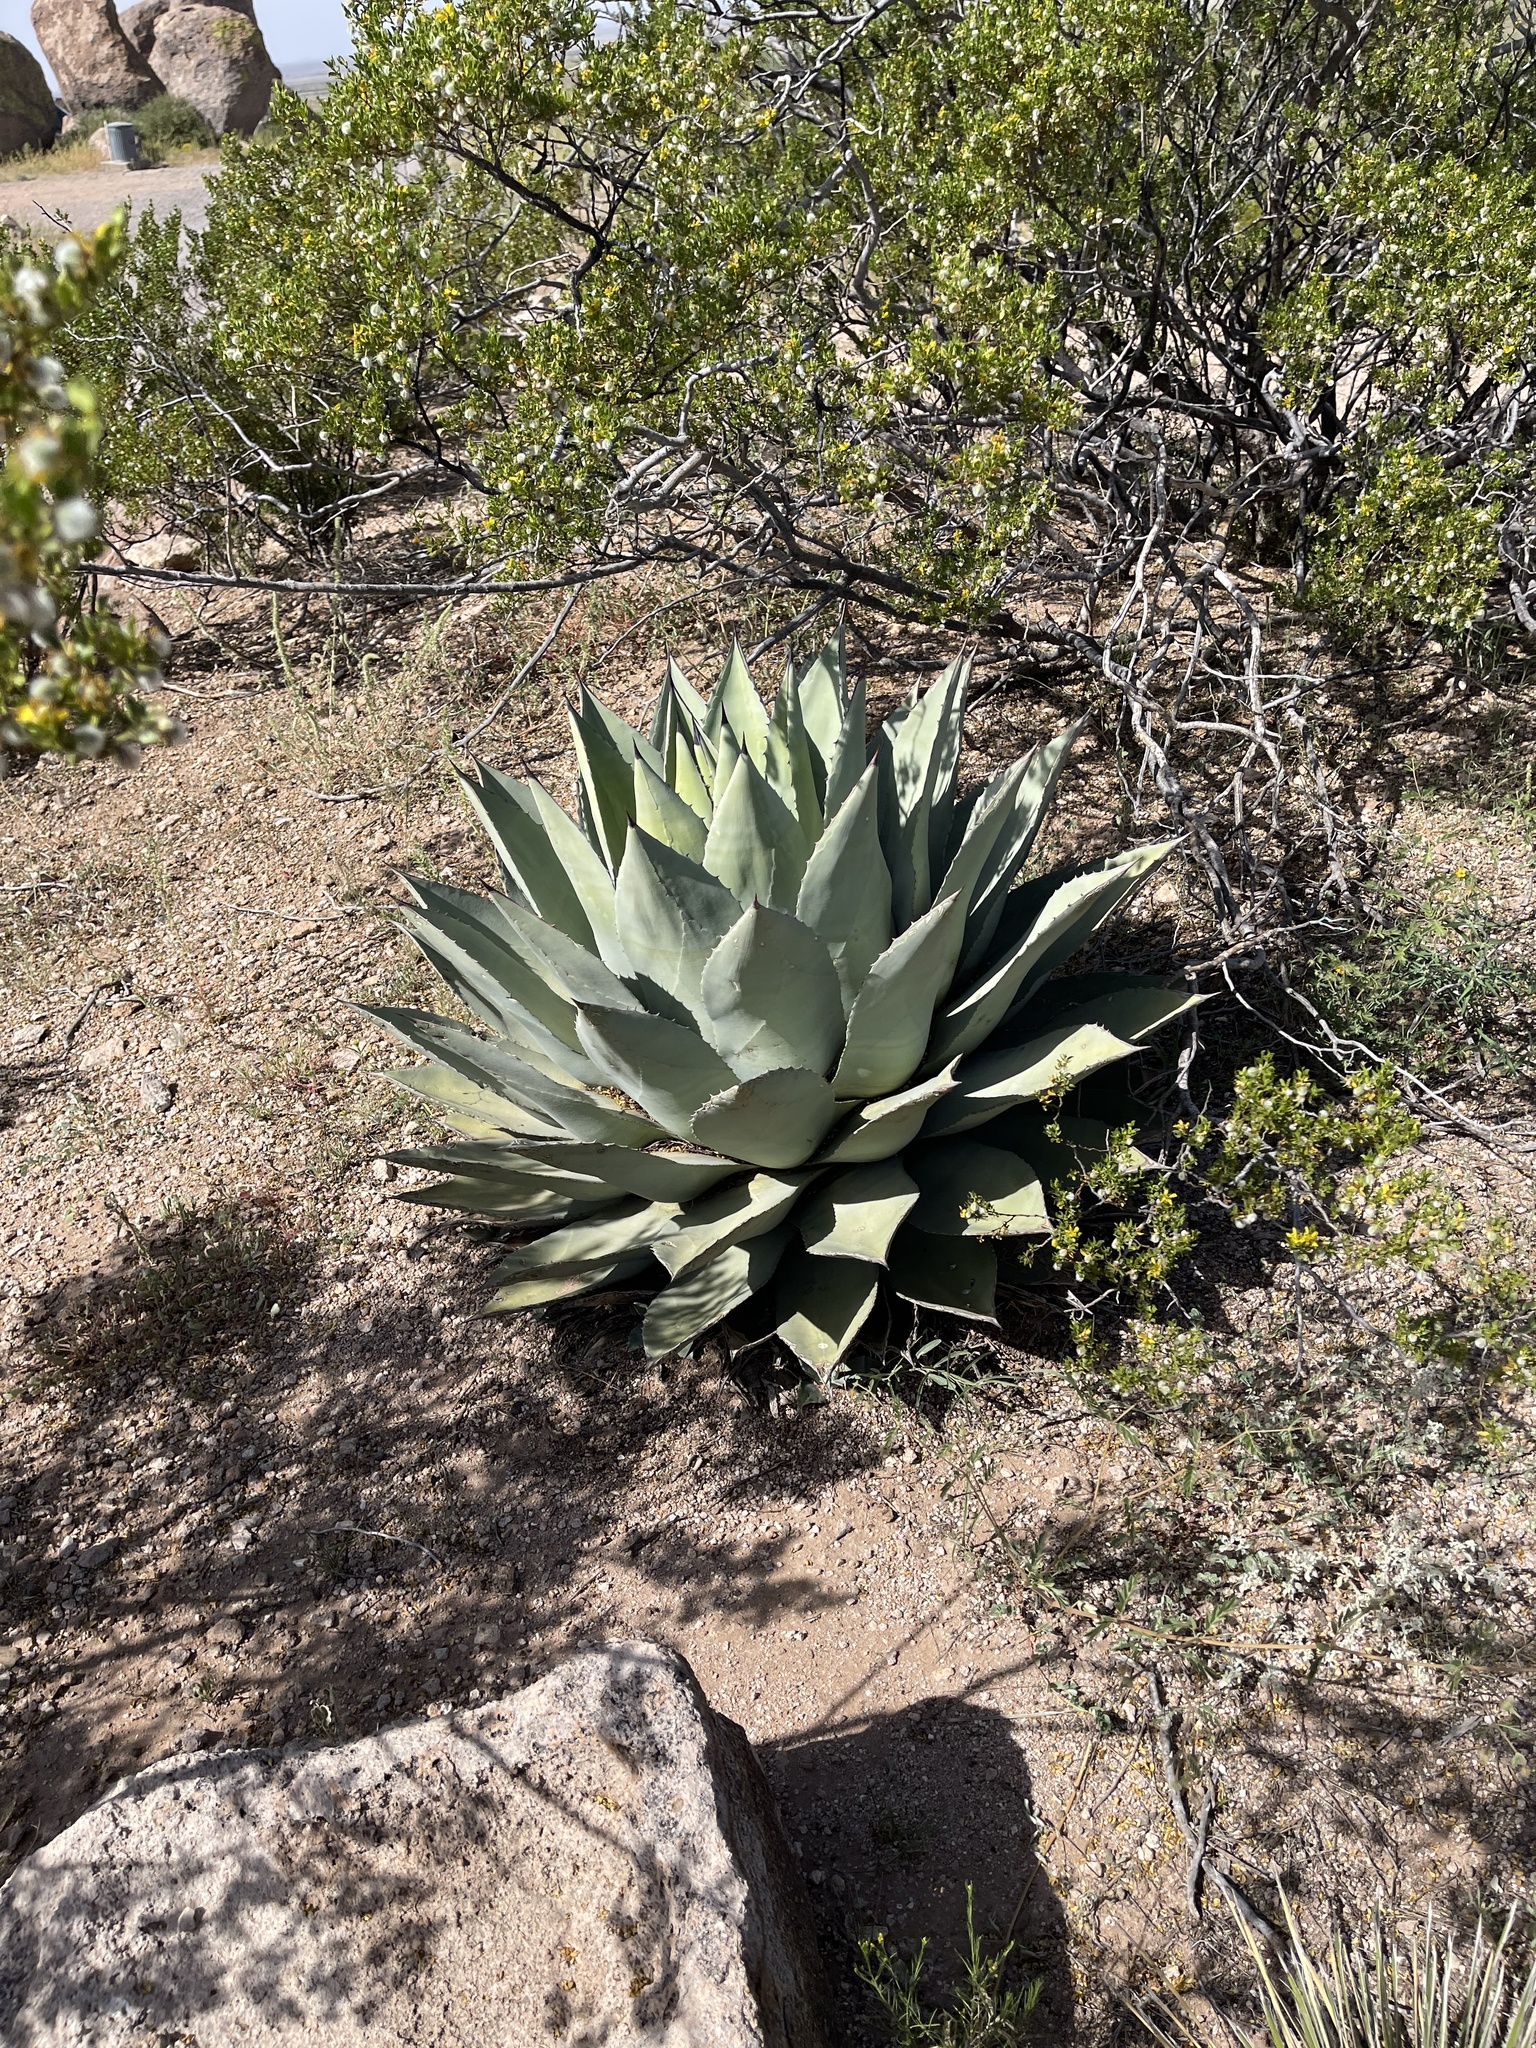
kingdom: Plantae
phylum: Tracheophyta
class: Liliopsida
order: Asparagales
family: Asparagaceae
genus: Agave
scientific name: Agave parryi
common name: Parry's agave
